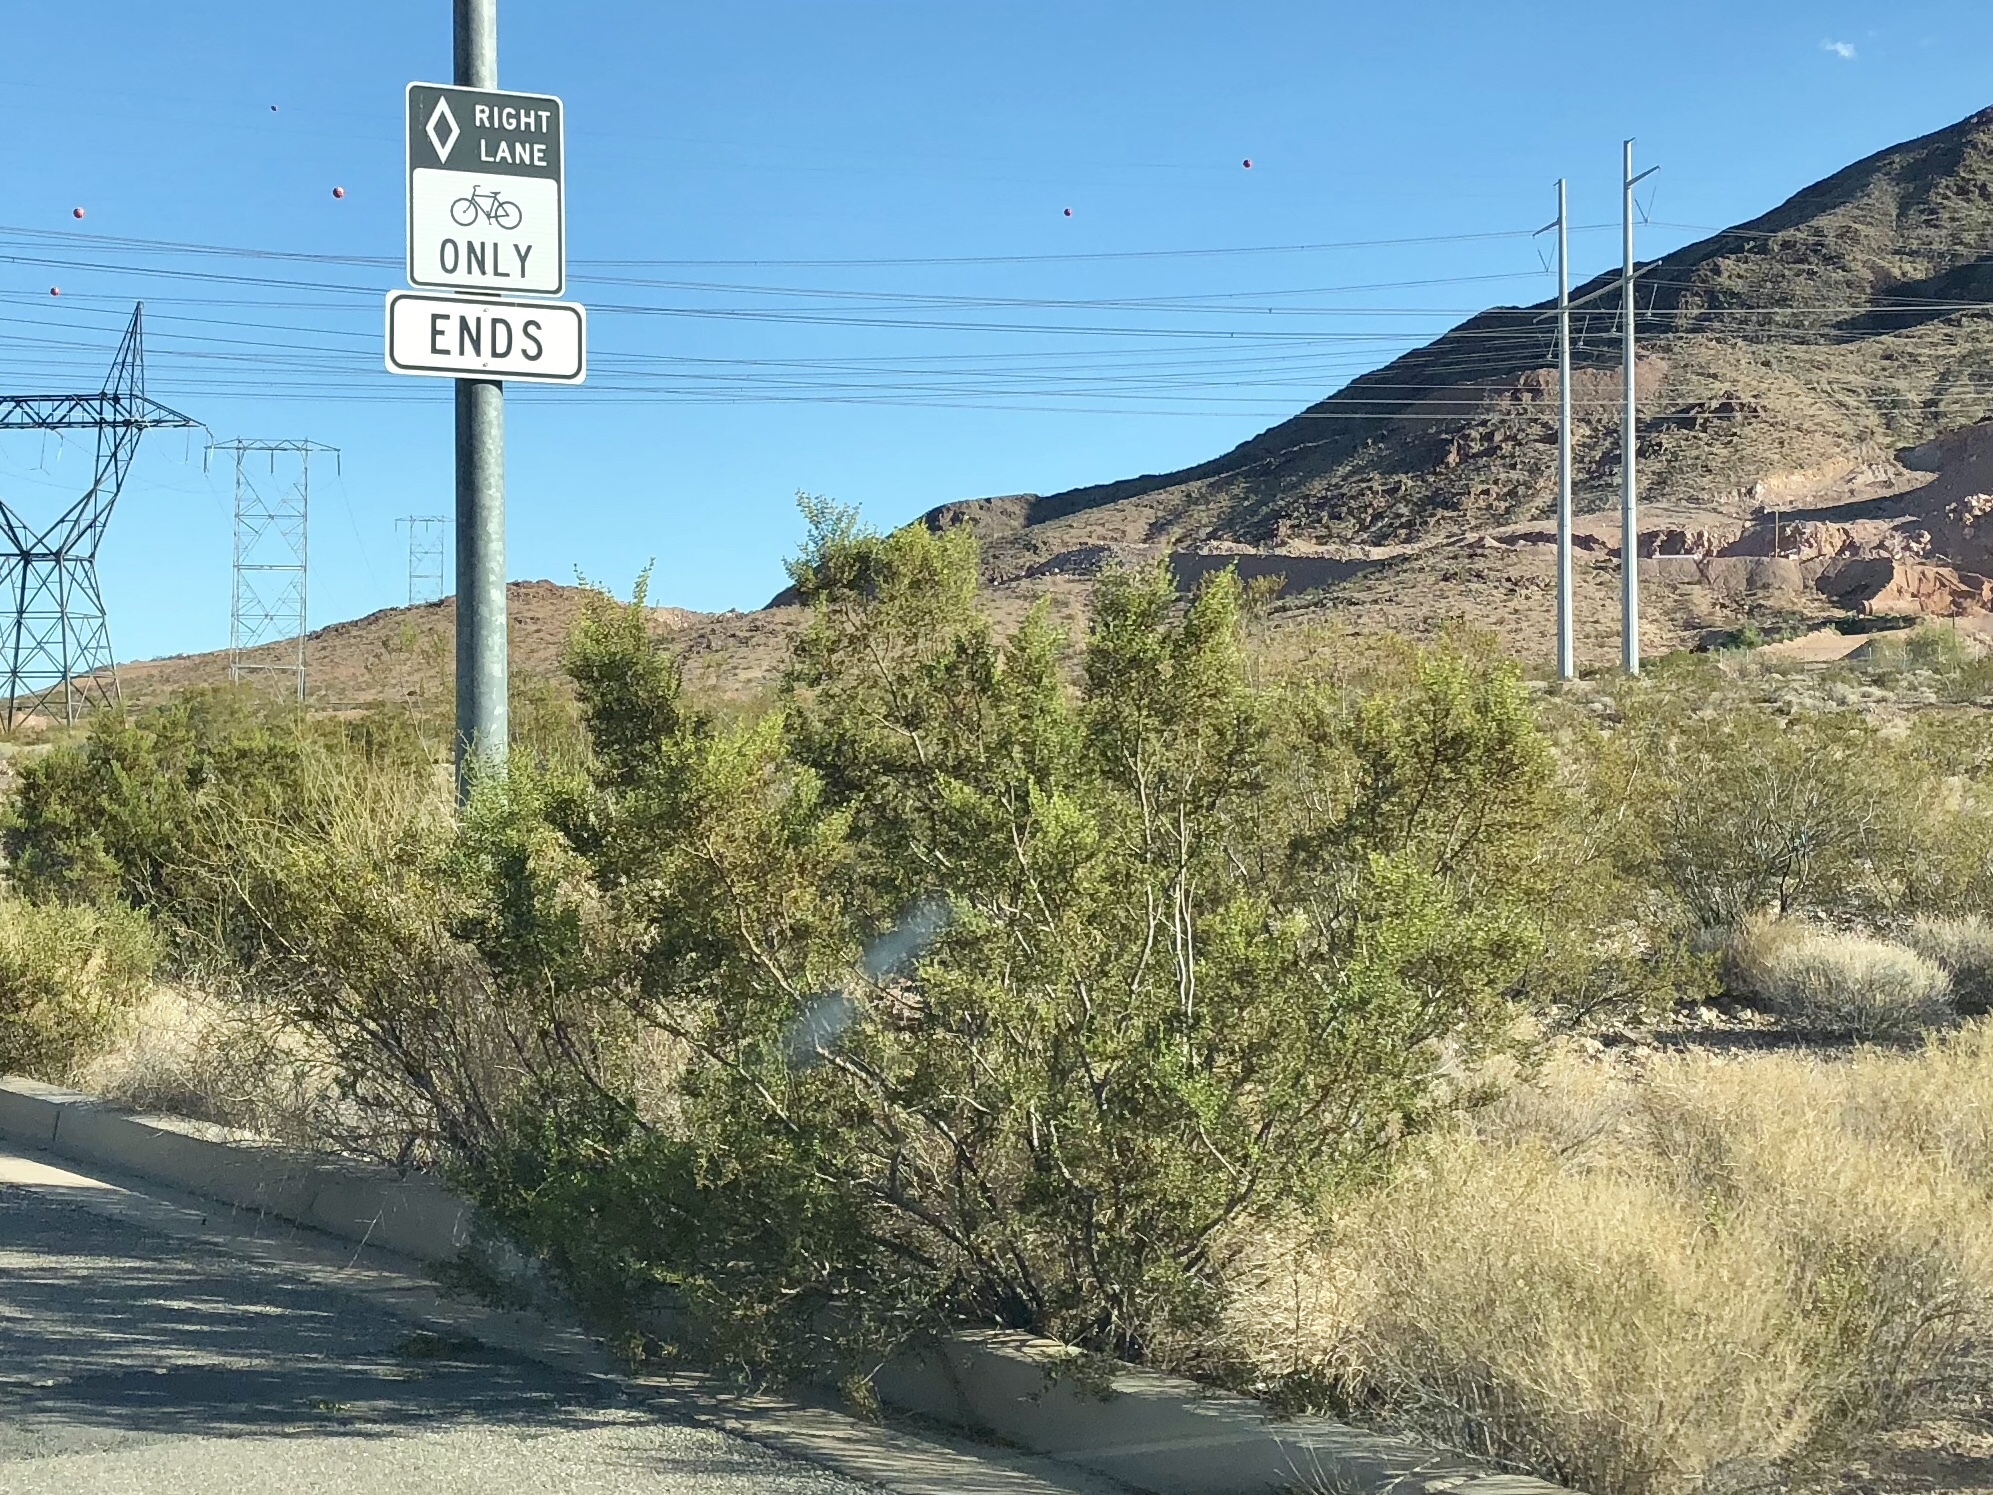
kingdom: Plantae
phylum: Tracheophyta
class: Magnoliopsida
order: Zygophyllales
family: Zygophyllaceae
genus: Larrea
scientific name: Larrea tridentata
